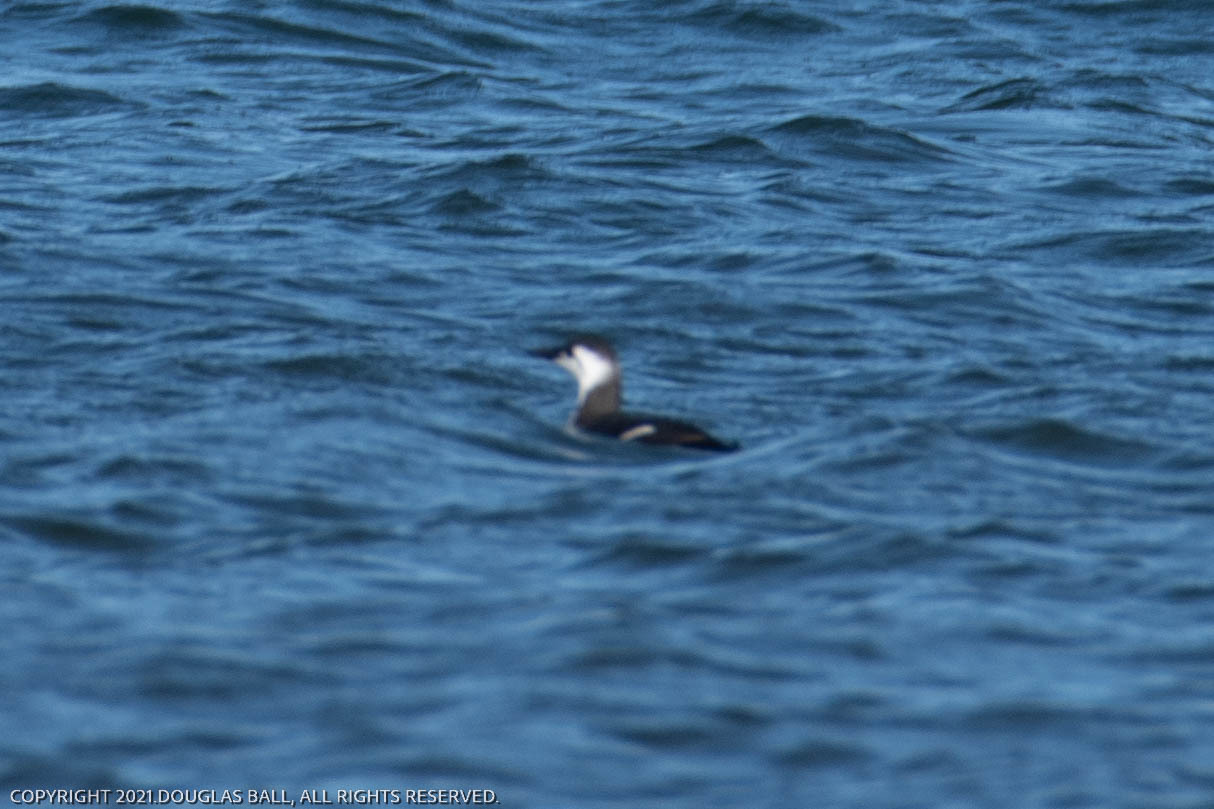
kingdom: Animalia
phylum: Chordata
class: Aves
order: Charadriiformes
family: Alcidae
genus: Uria
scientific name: Uria aalge
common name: Common murre
